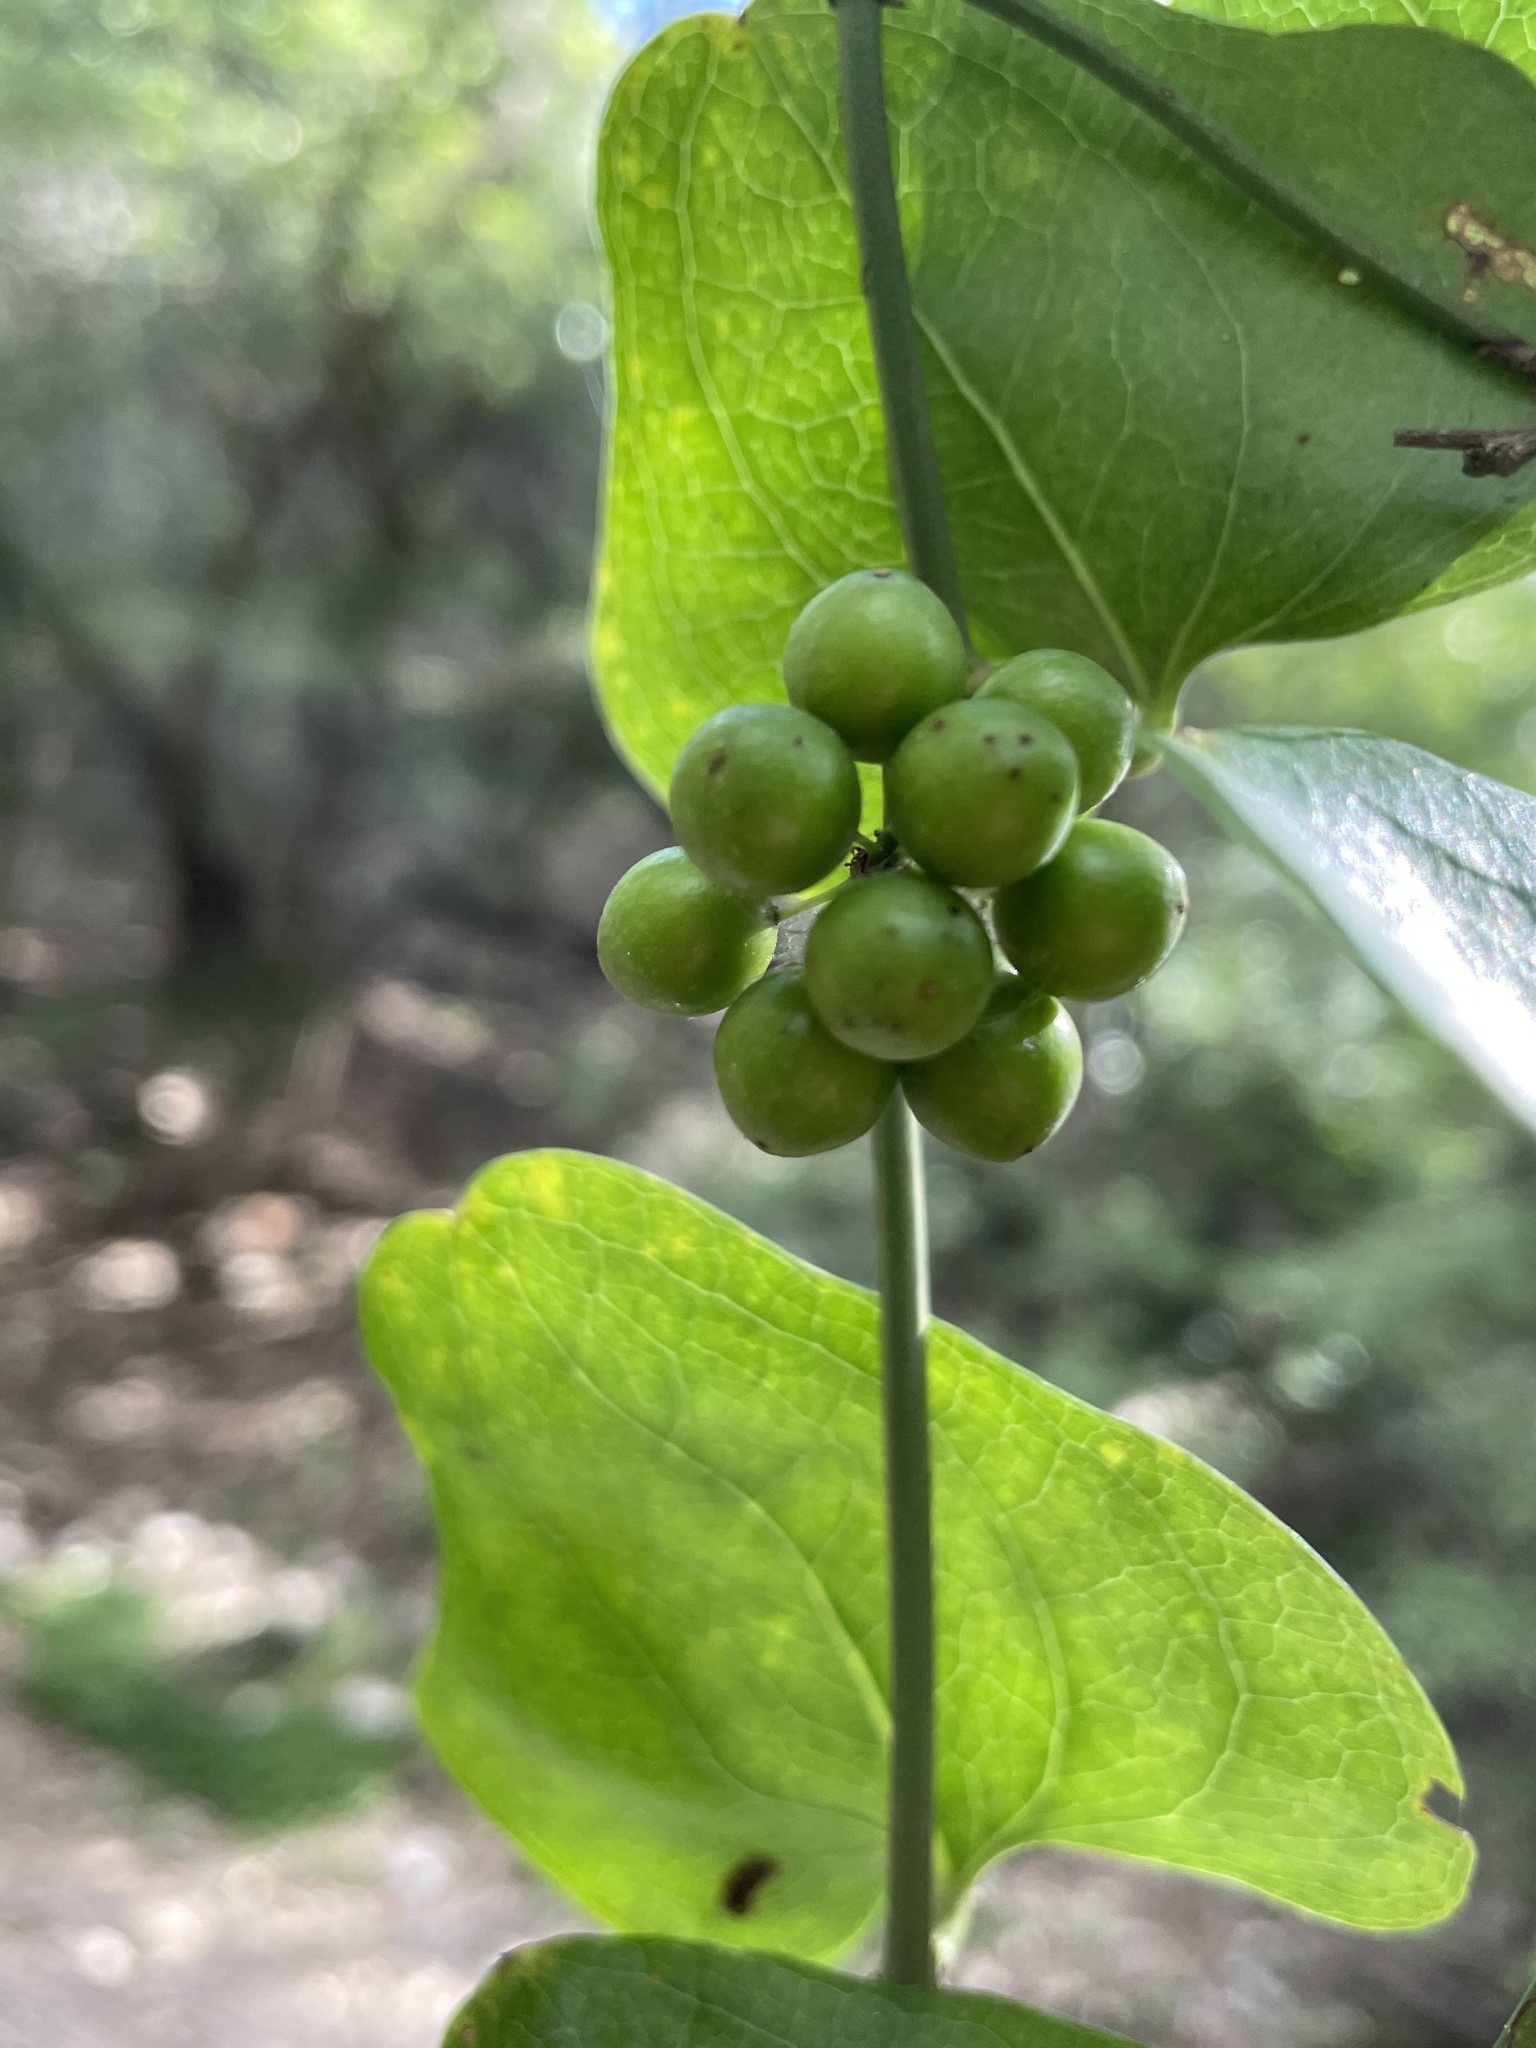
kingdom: Plantae
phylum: Tracheophyta
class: Liliopsida
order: Liliales
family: Smilacaceae
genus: Smilax
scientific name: Smilax bona-nox
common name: Catbrier
